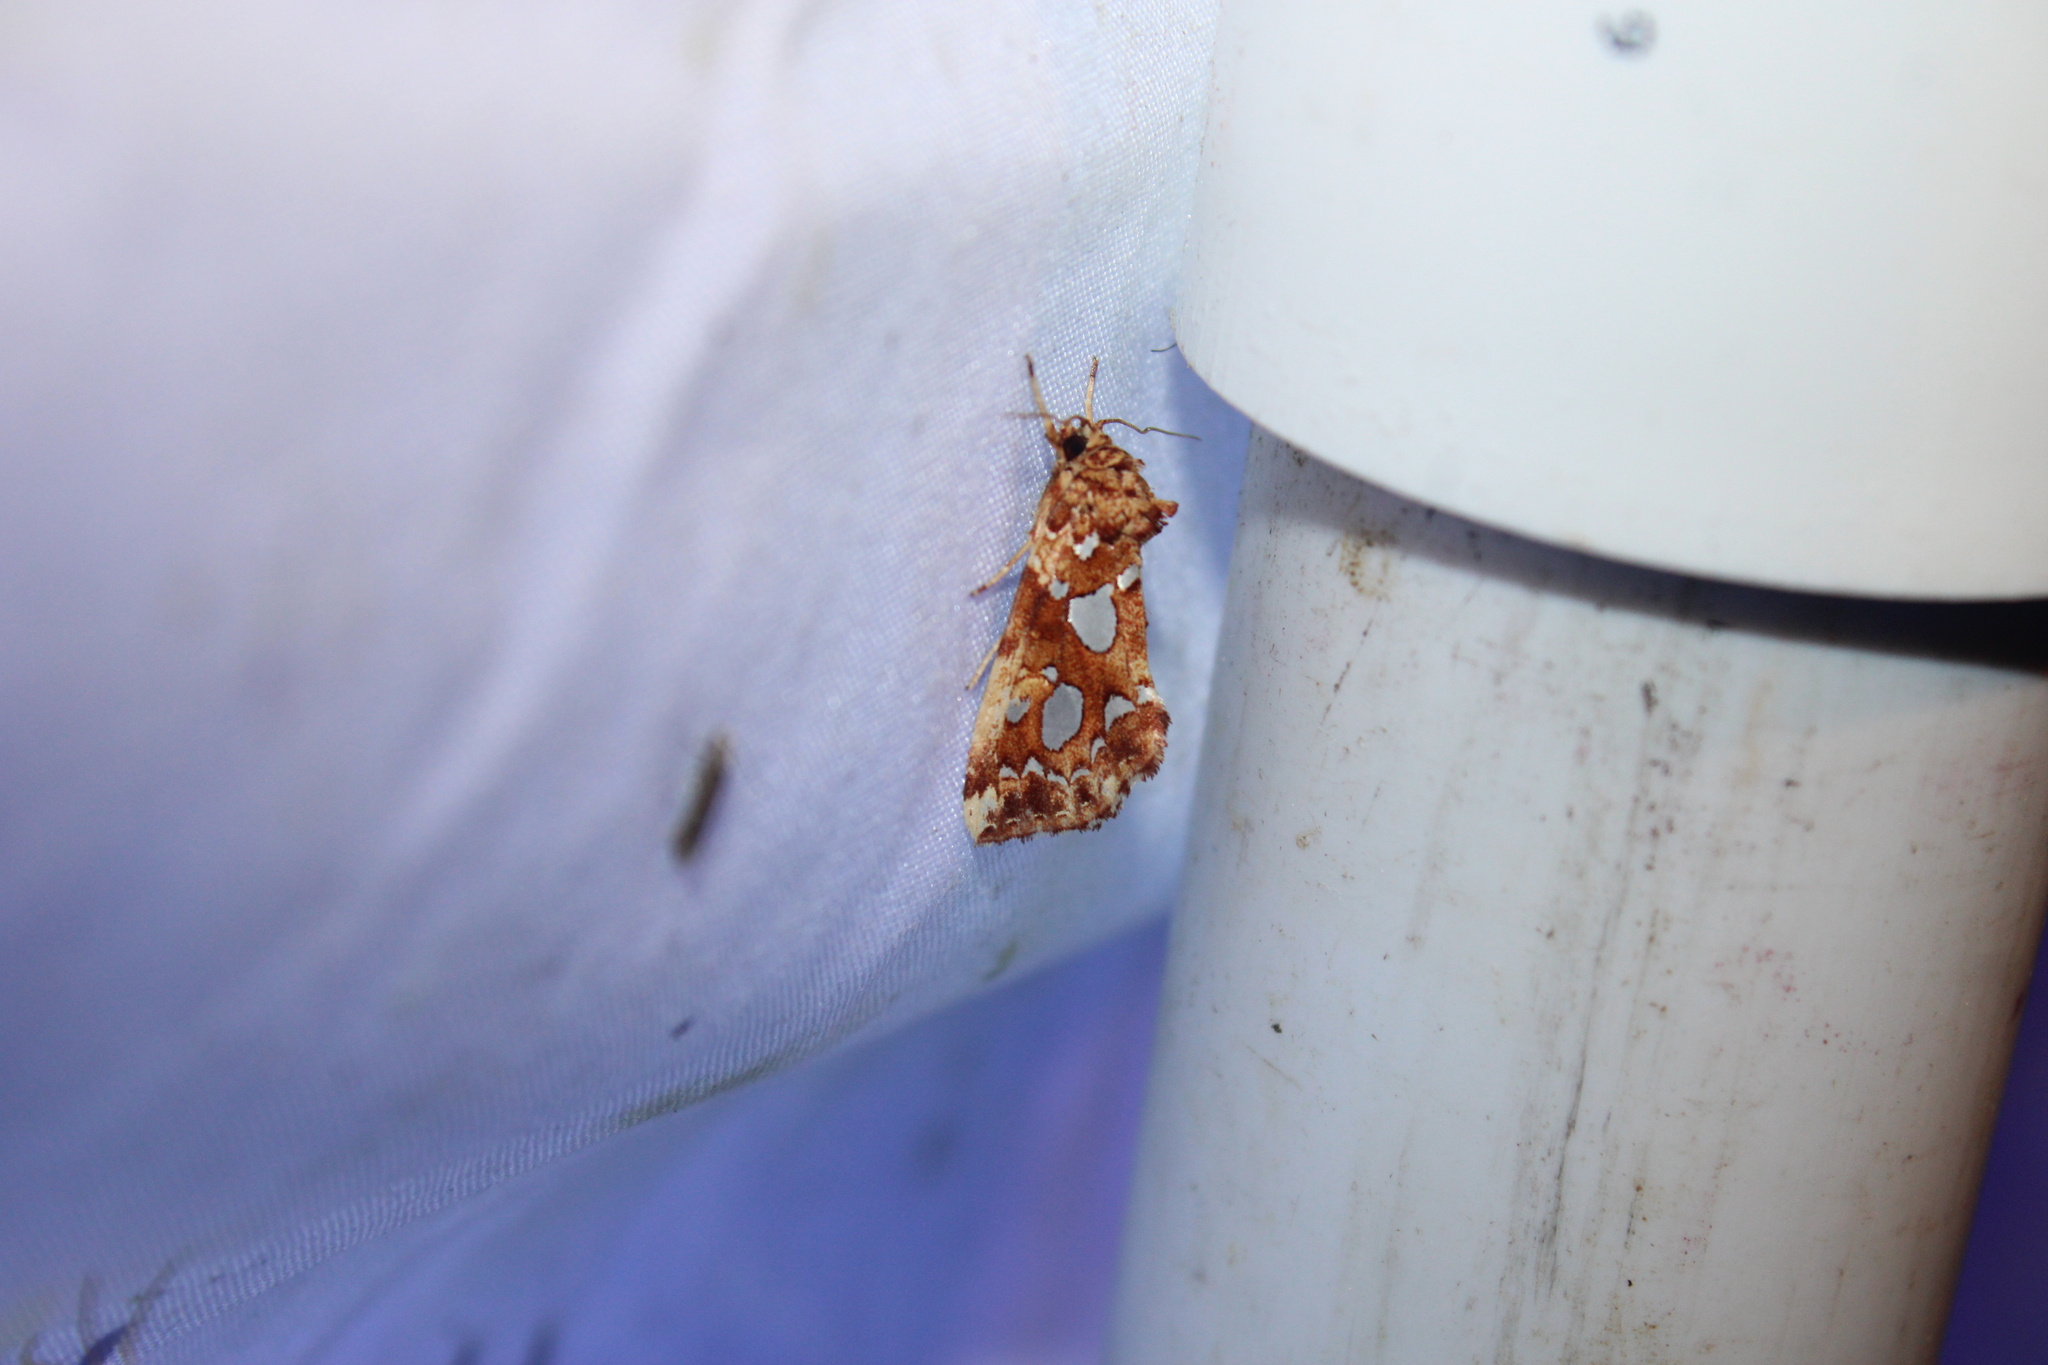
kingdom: Animalia
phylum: Arthropoda
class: Insecta
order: Lepidoptera
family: Noctuidae
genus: Callopistria
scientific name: Callopistria cordata
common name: Silver-spotted fern moth
